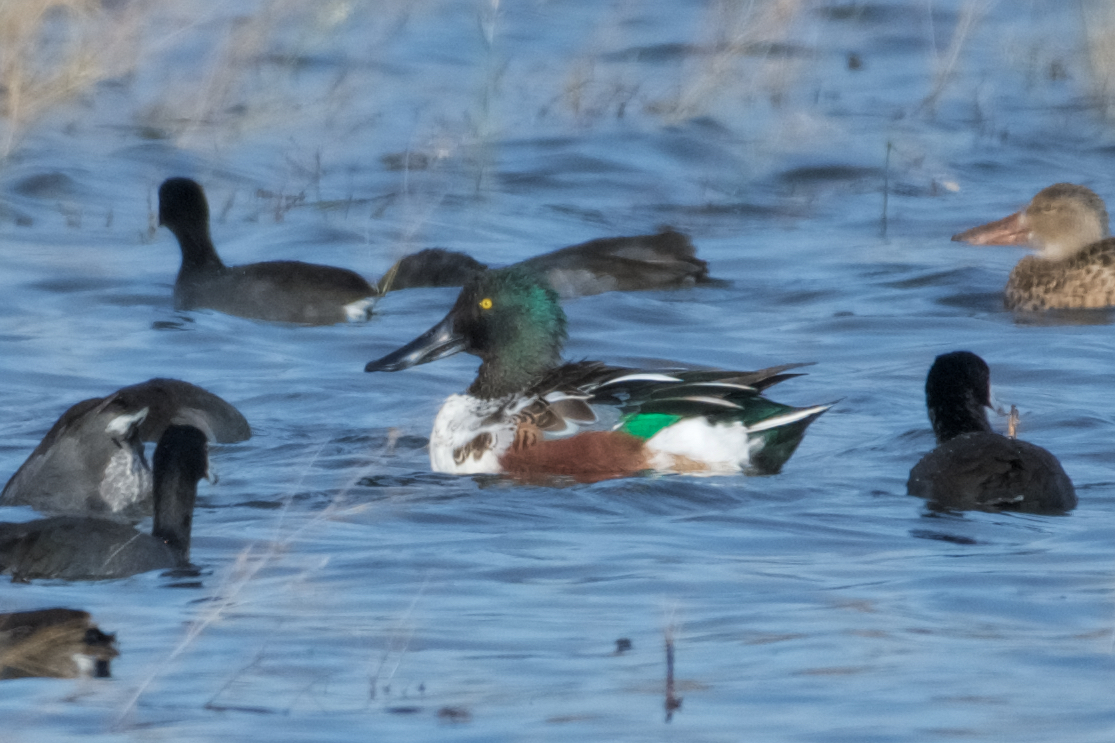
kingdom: Animalia
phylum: Chordata
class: Aves
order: Anseriformes
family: Anatidae
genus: Spatula
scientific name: Spatula clypeata
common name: Northern shoveler
